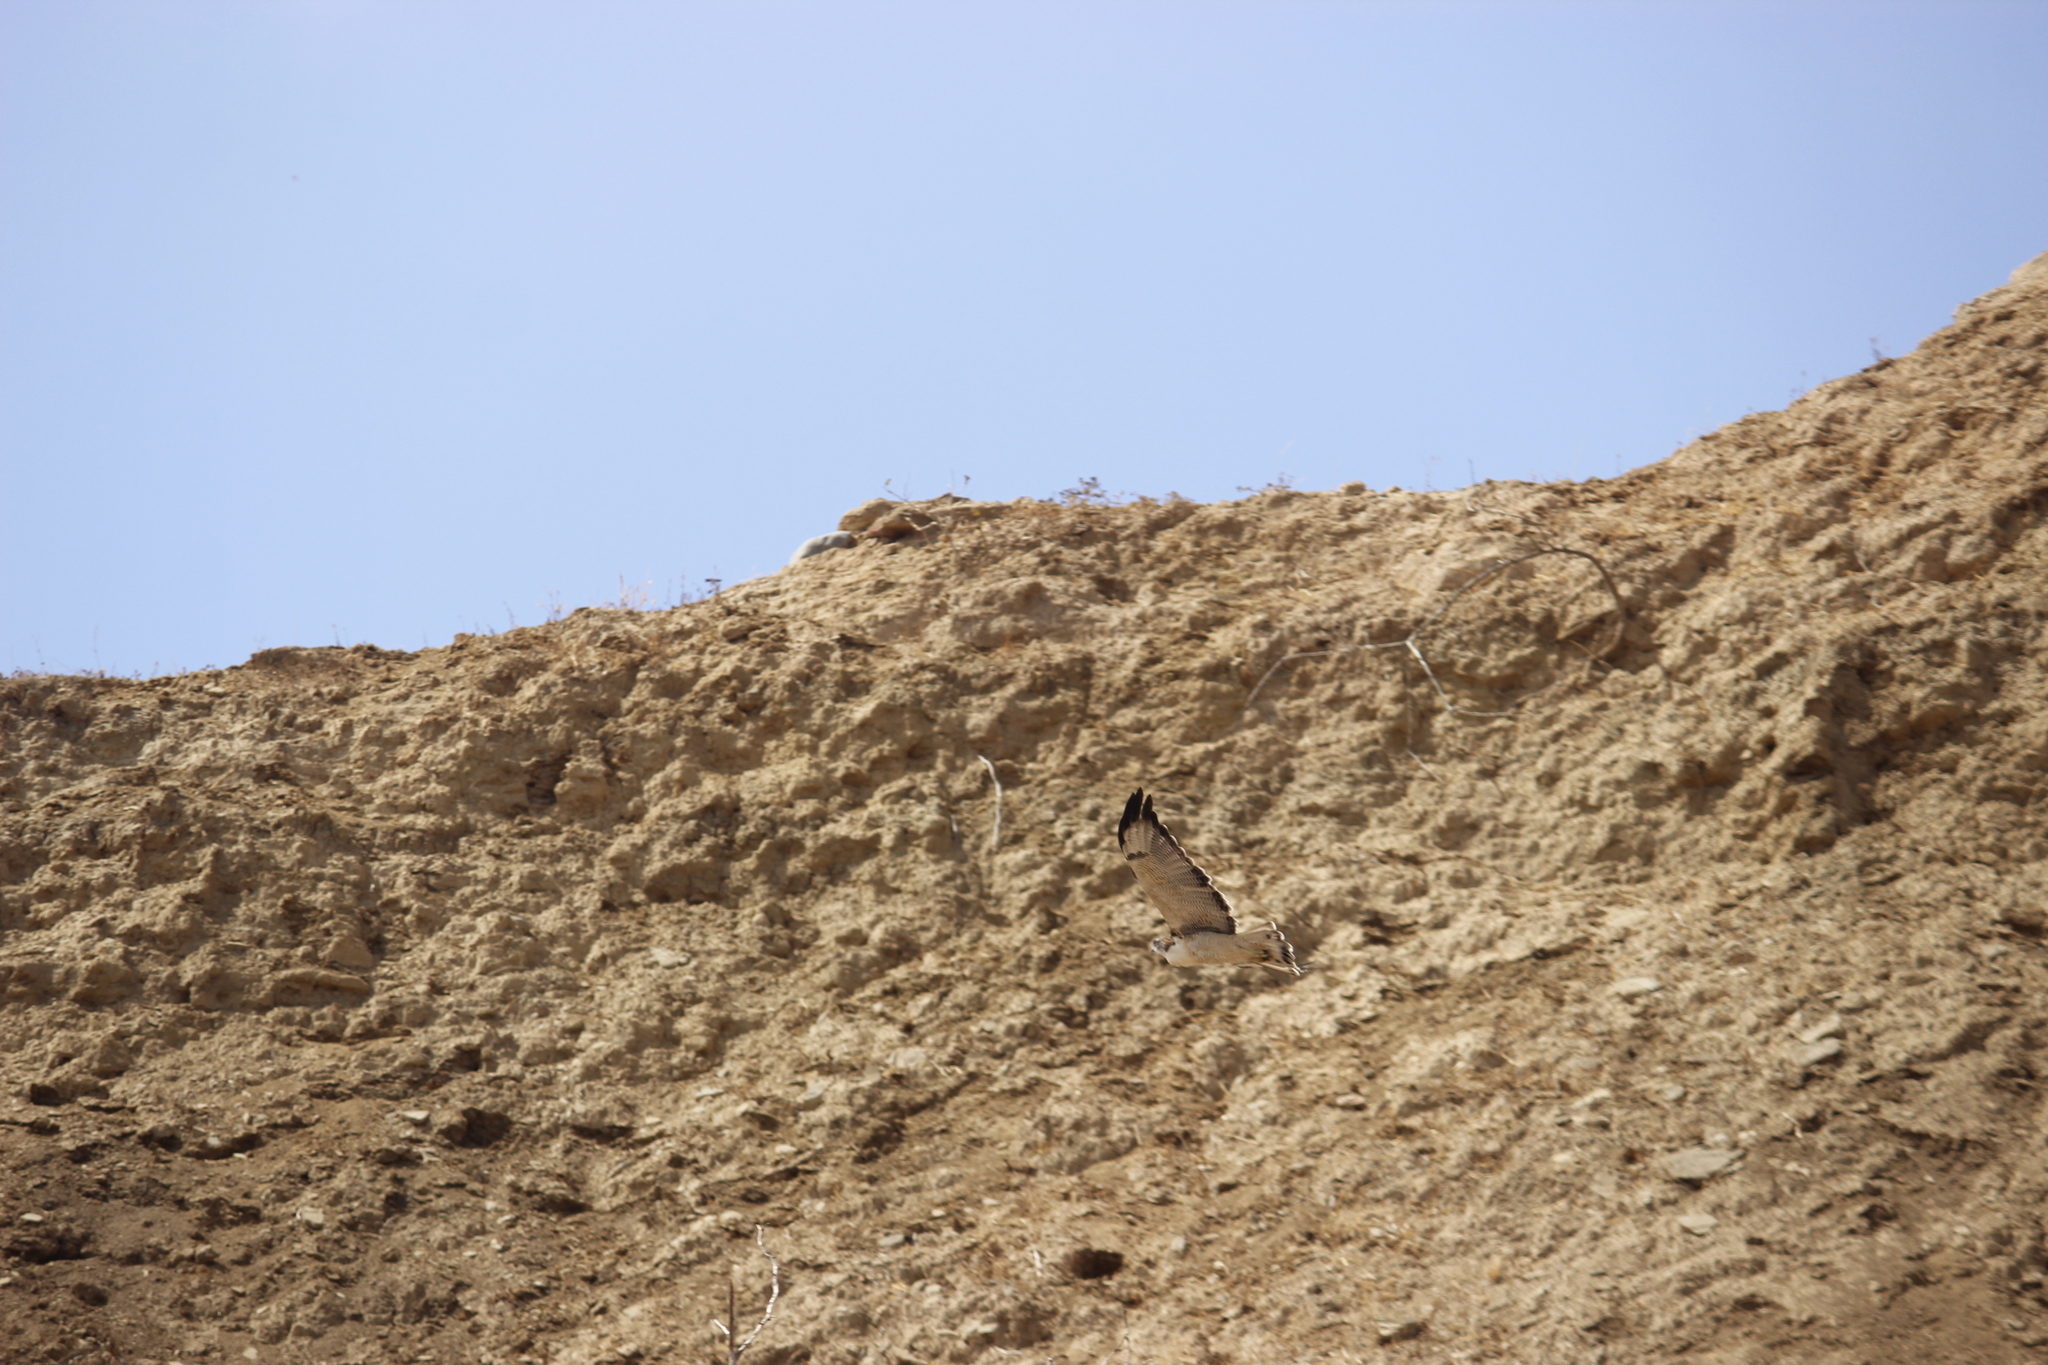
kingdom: Animalia
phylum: Chordata
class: Aves
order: Accipitriformes
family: Accipitridae
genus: Buteo
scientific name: Buteo polyosoma
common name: Variable hawk
